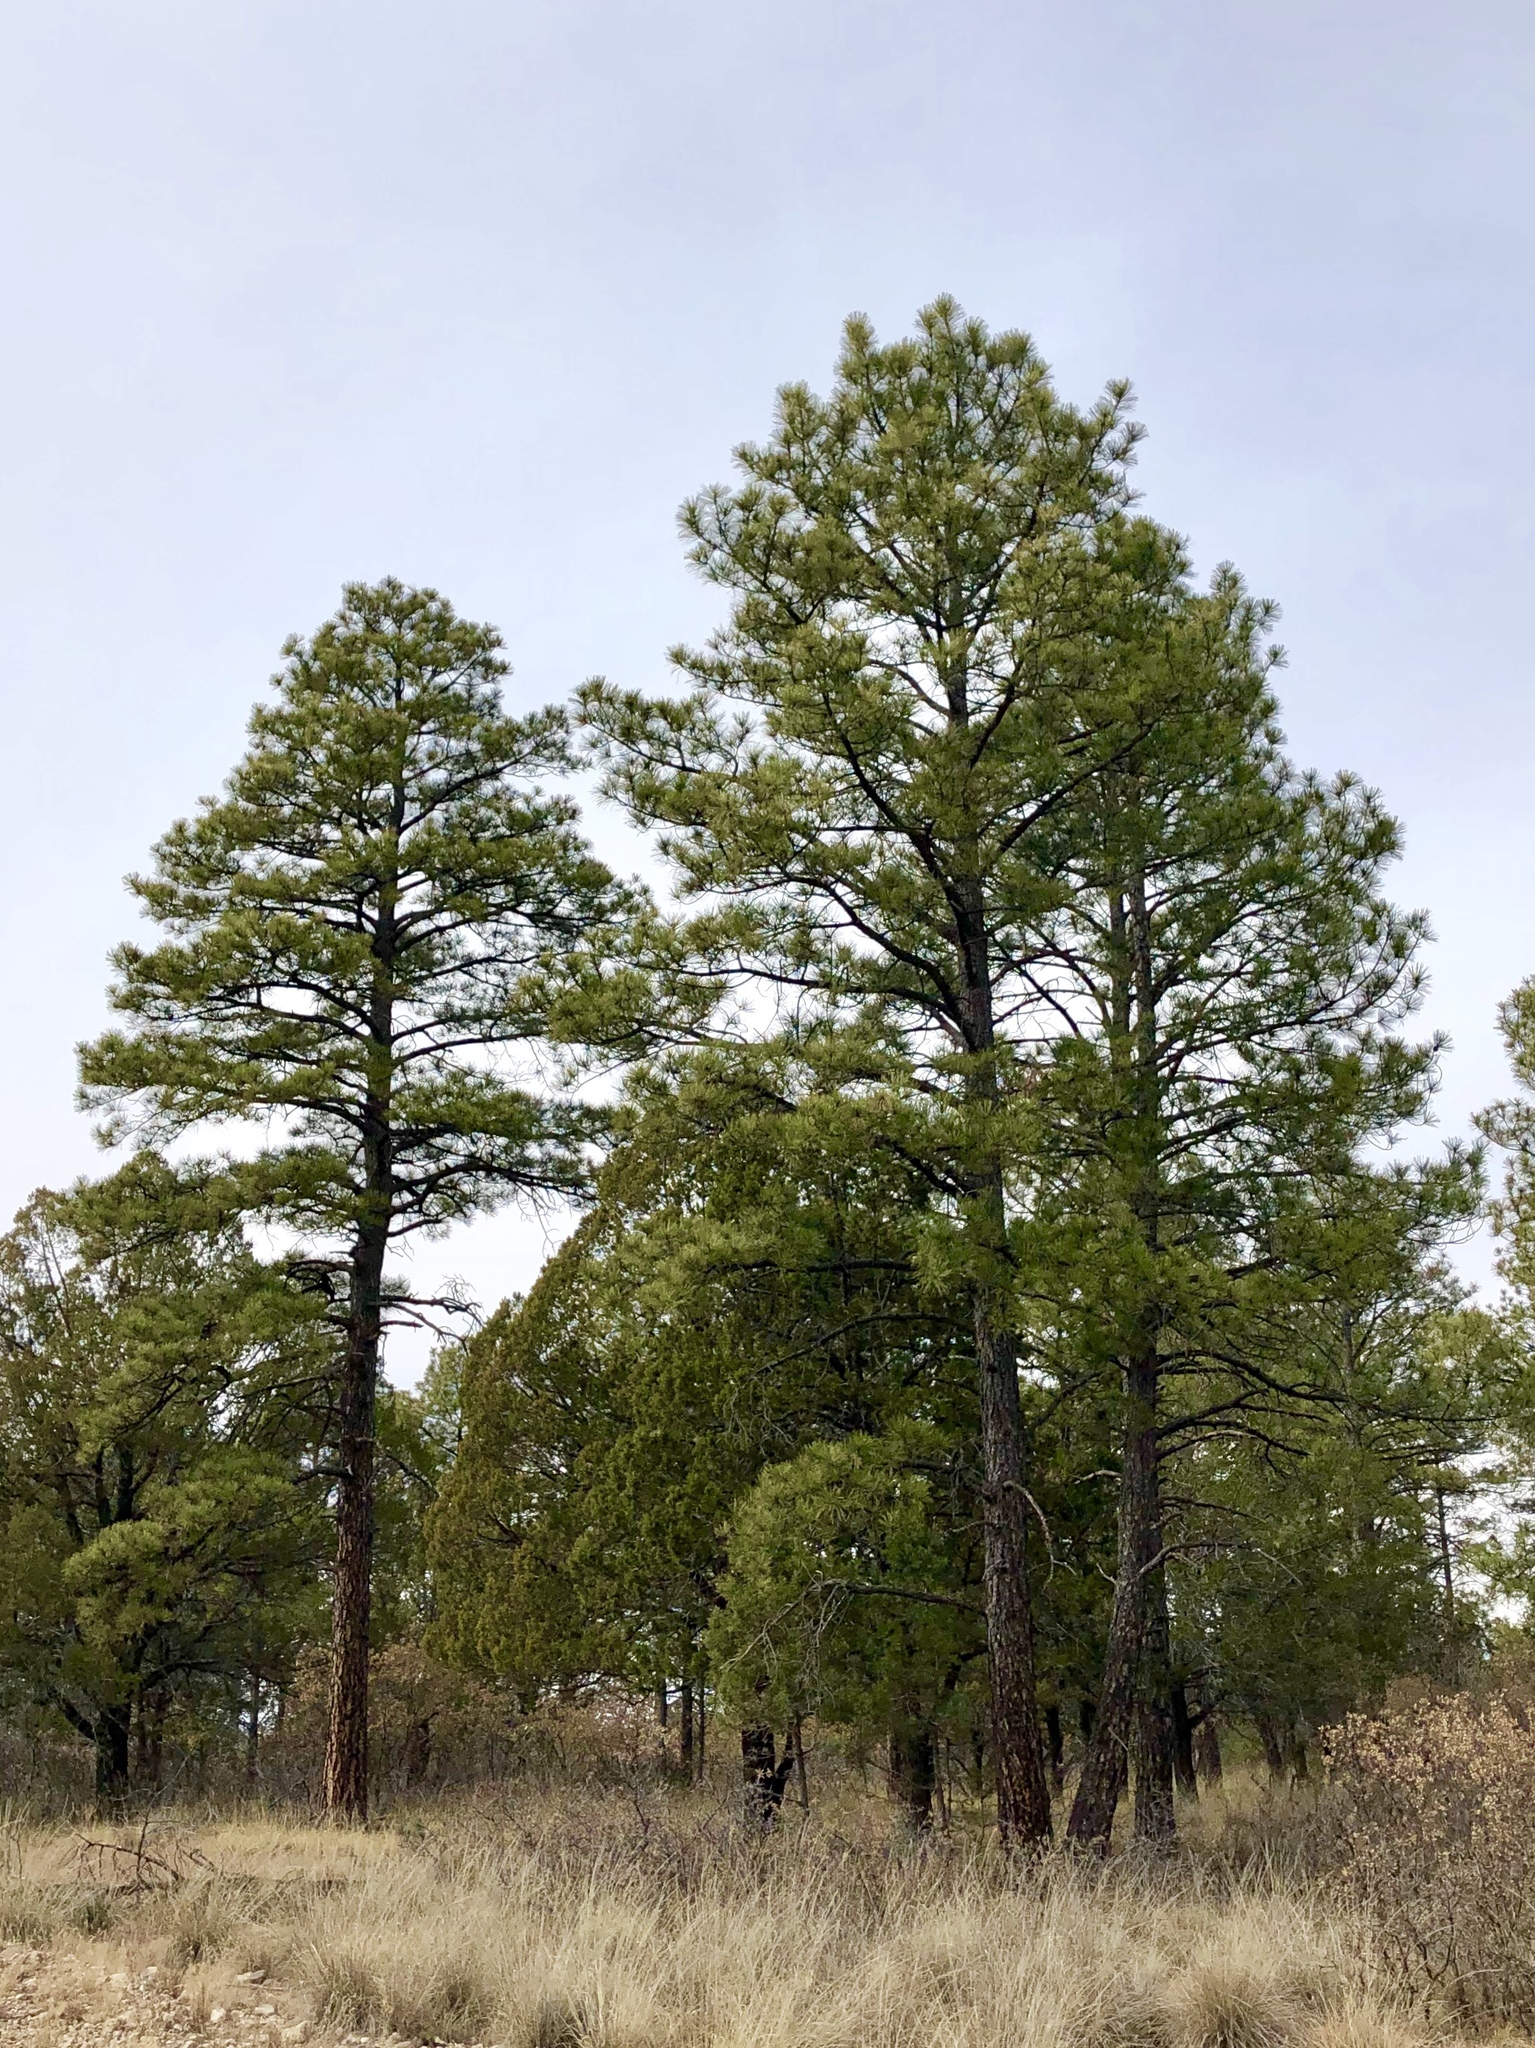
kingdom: Plantae
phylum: Tracheophyta
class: Pinopsida
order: Pinales
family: Pinaceae
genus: Pinus
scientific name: Pinus ponderosa
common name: Western yellow-pine
